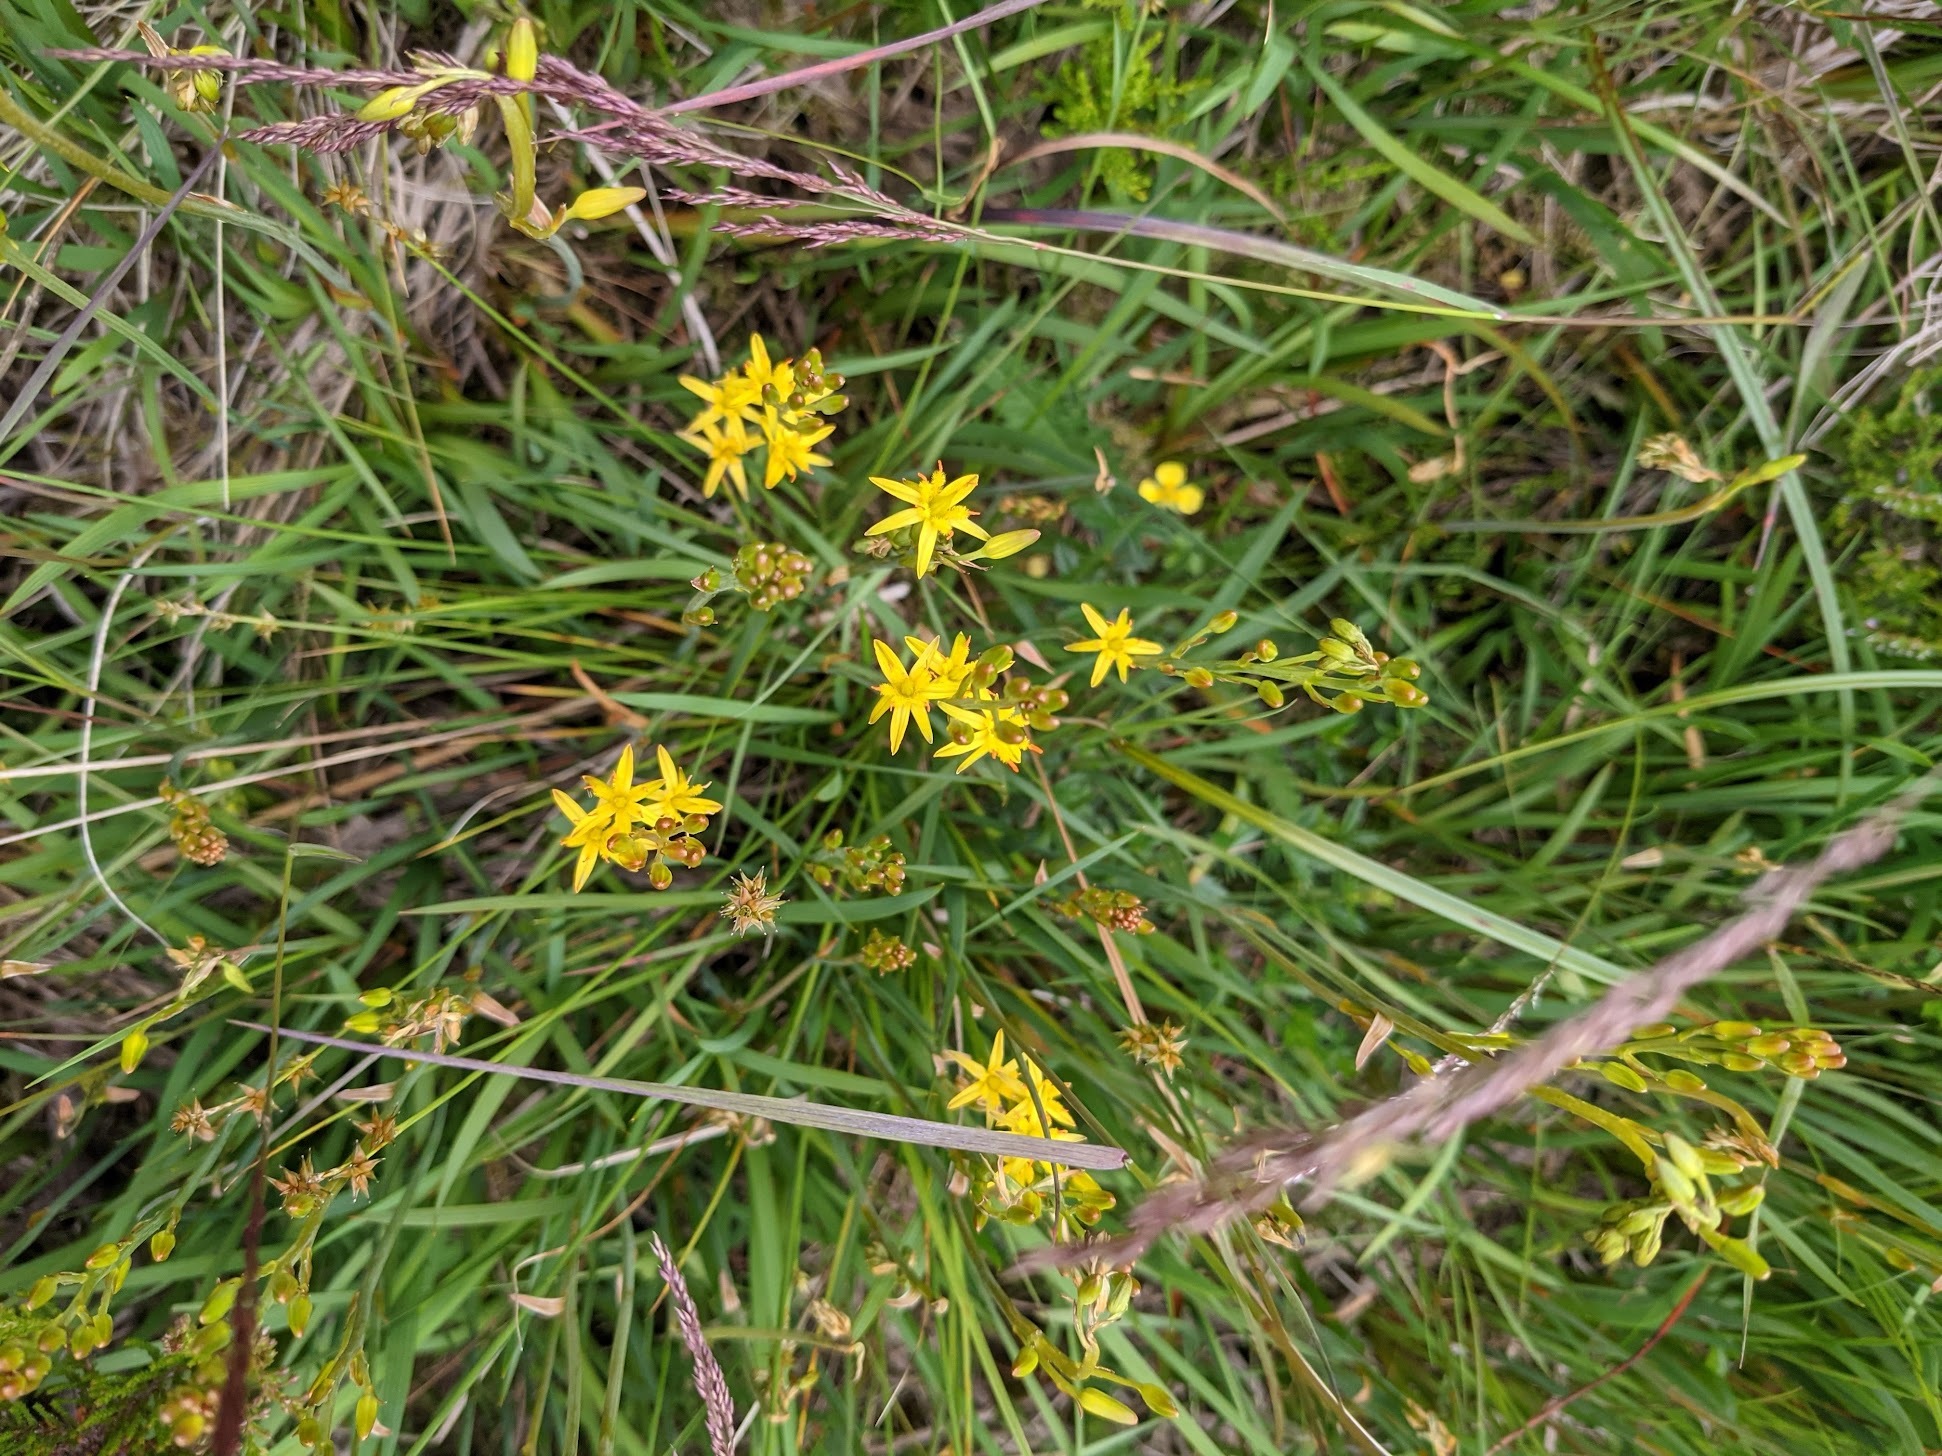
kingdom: Plantae
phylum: Tracheophyta
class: Liliopsida
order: Dioscoreales
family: Nartheciaceae
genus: Narthecium
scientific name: Narthecium ossifragum
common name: Bog asphodel
